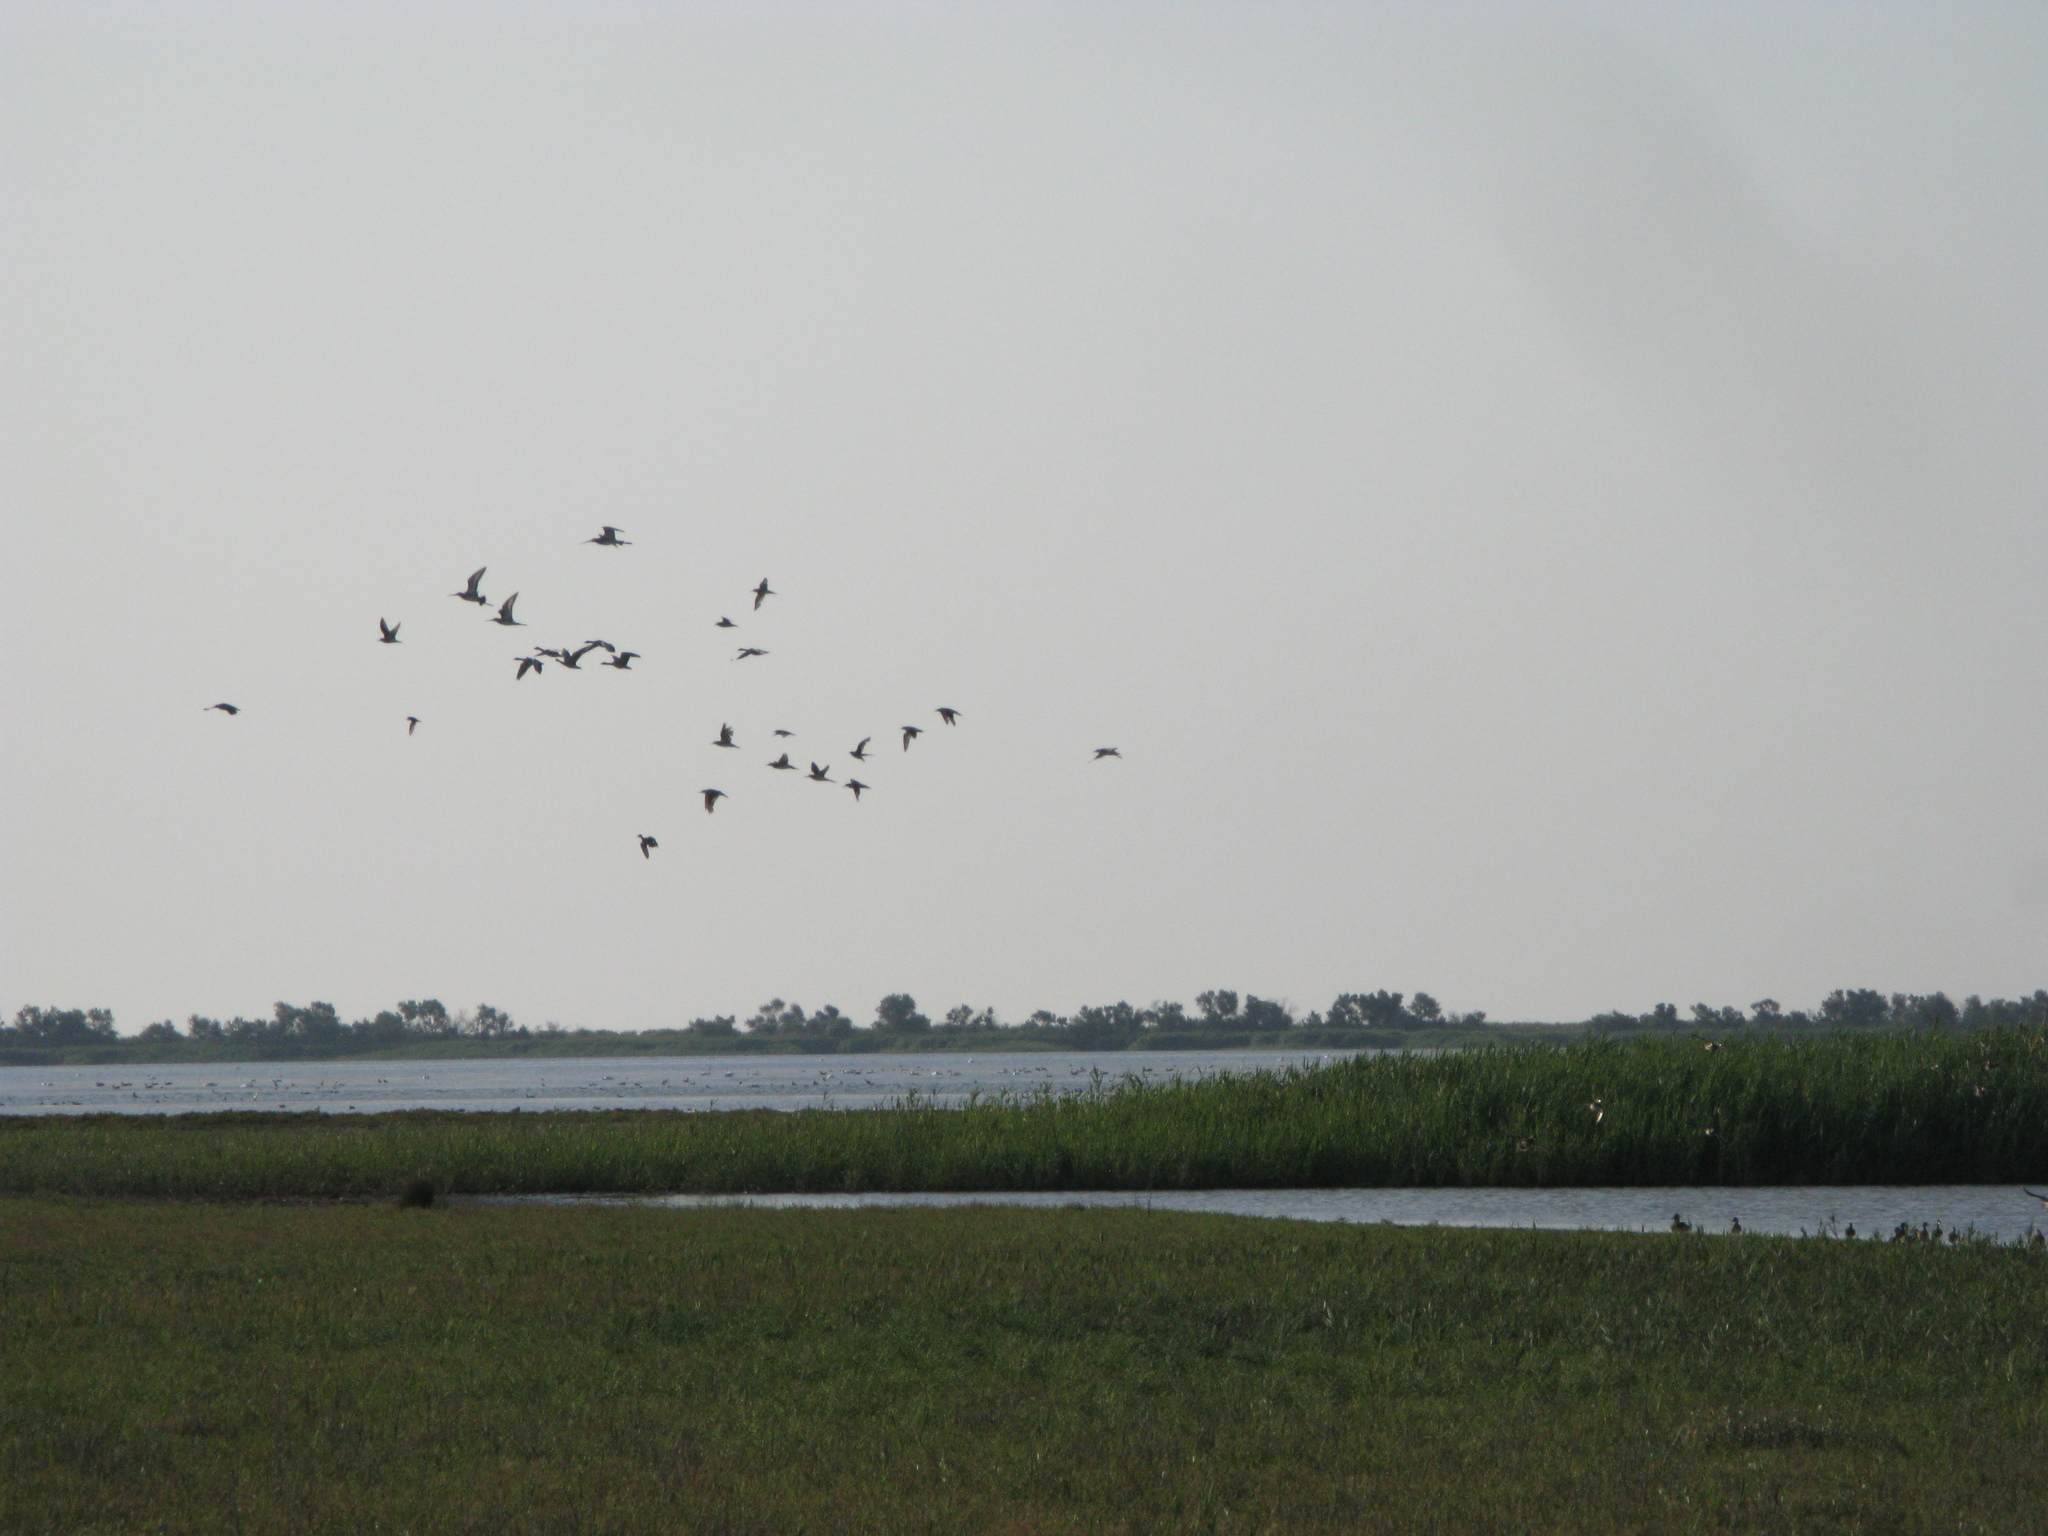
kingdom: Animalia
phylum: Chordata
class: Aves
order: Charadriiformes
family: Scolopacidae
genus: Limosa
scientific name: Limosa limosa
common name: Black-tailed godwit
